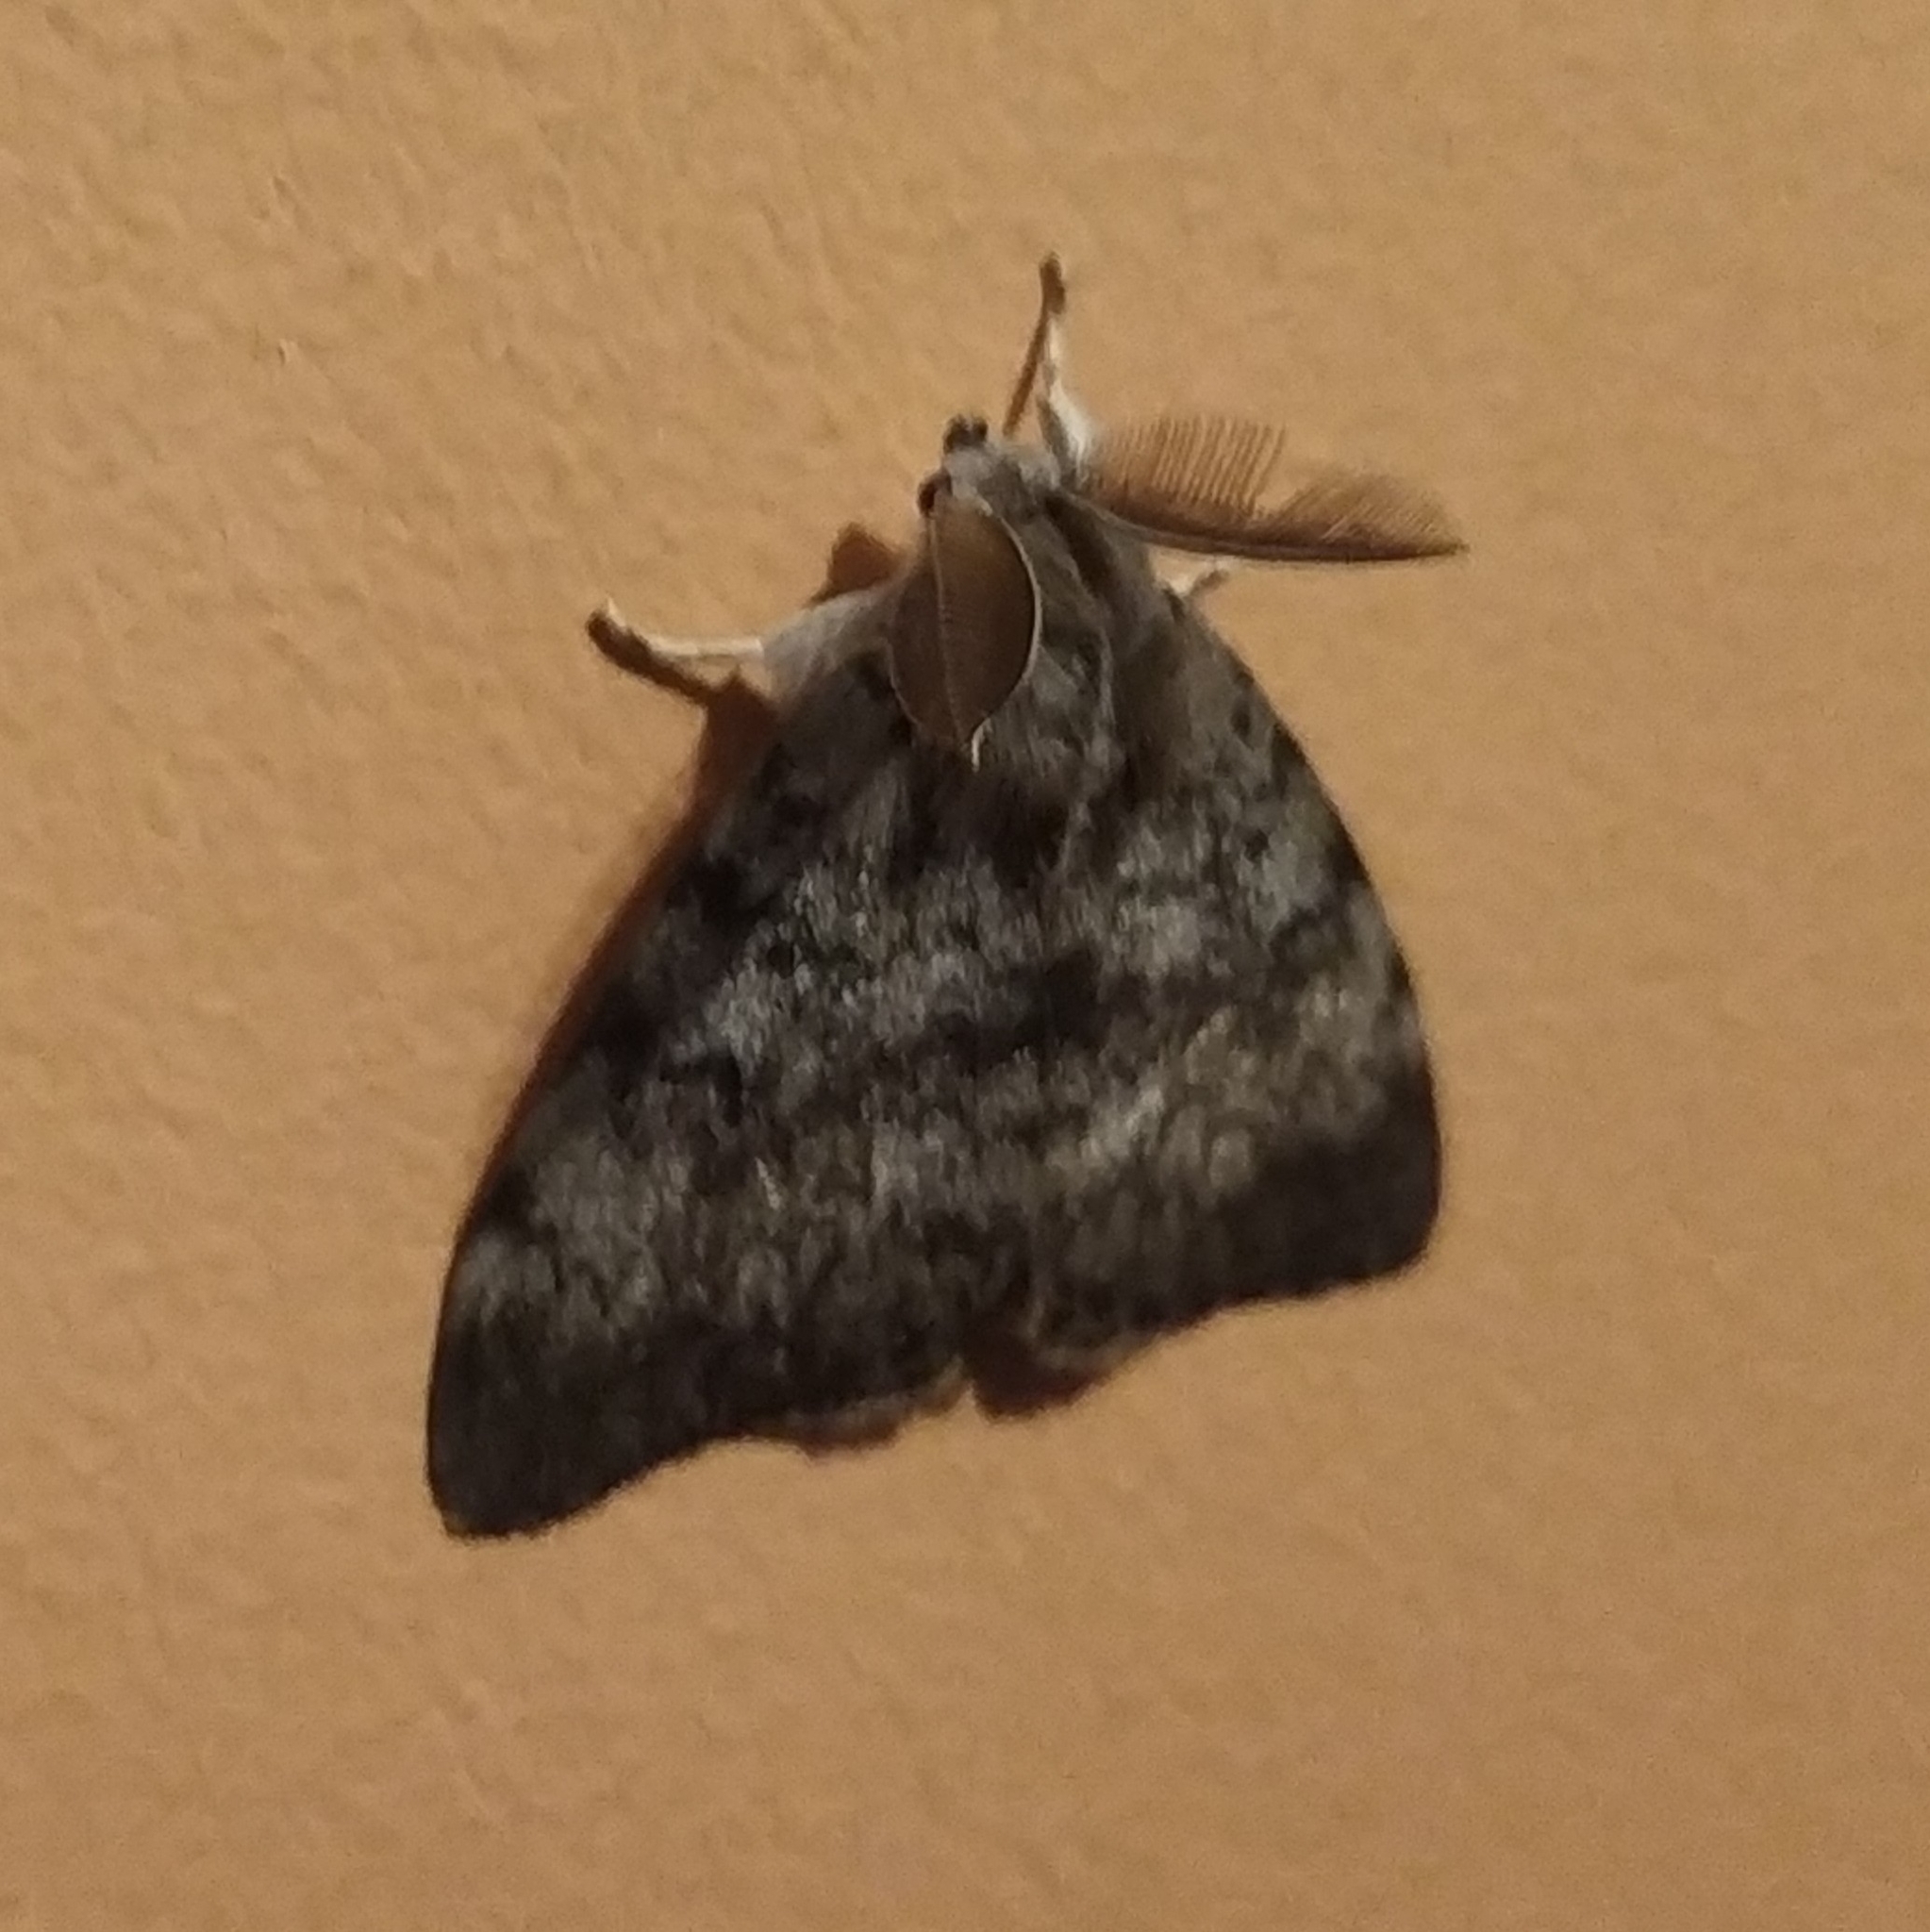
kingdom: Animalia
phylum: Arthropoda
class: Insecta
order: Lepidoptera
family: Erebidae
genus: Lymantria
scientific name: Lymantria dispar
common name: Gypsy moth
